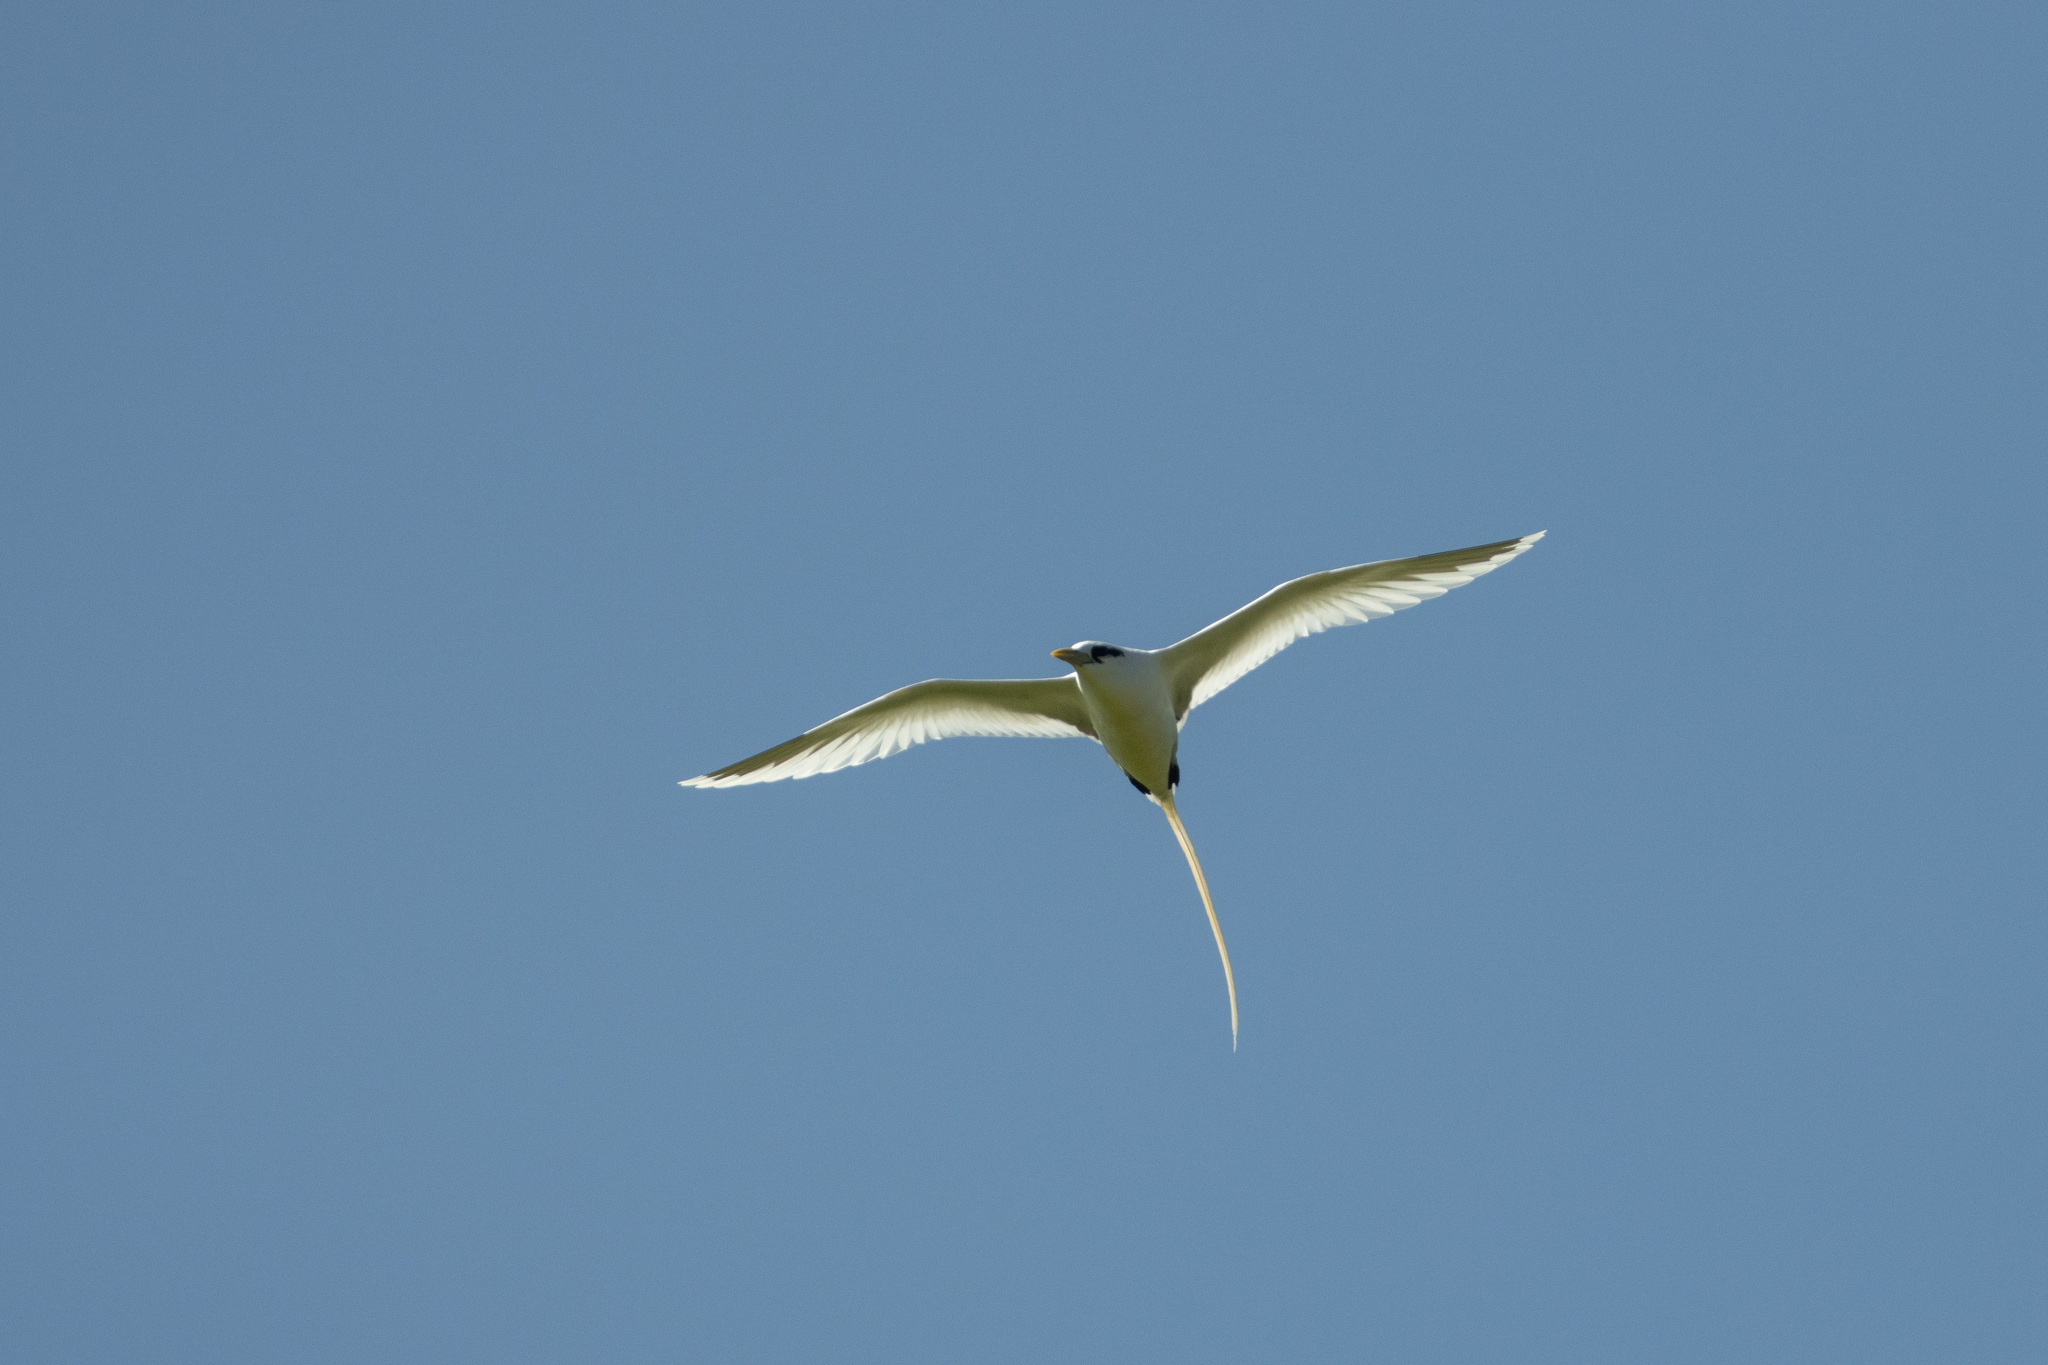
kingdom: Animalia
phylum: Chordata
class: Aves
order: Phaethontiformes
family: Phaethontidae
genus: Phaethon
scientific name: Phaethon lepturus
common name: White-tailed tropicbird
